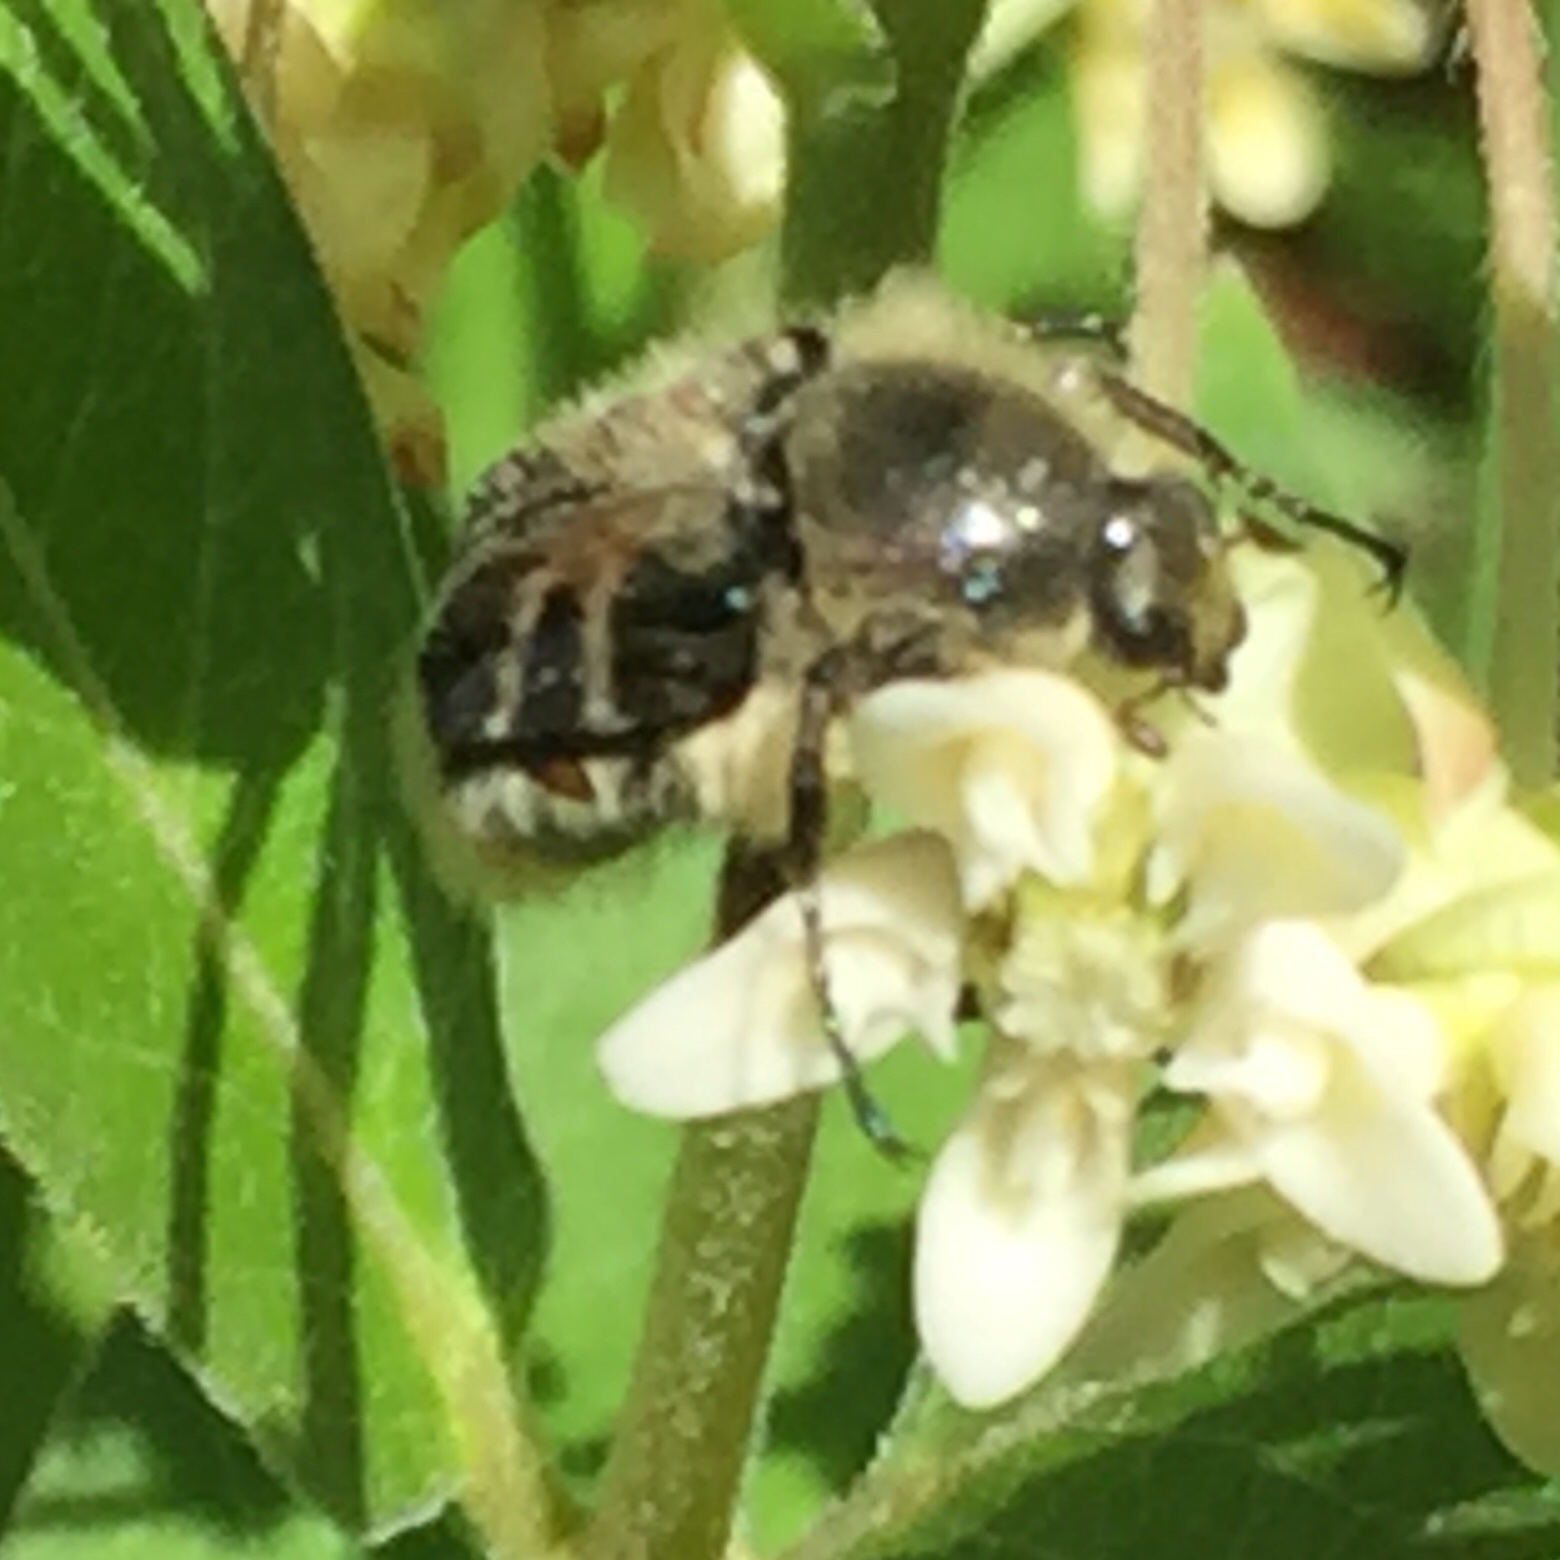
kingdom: Animalia
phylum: Arthropoda
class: Insecta
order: Coleoptera
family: Scarabaeidae
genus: Trichiotinus
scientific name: Trichiotinus assimilis
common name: Bee-mimic beetle
